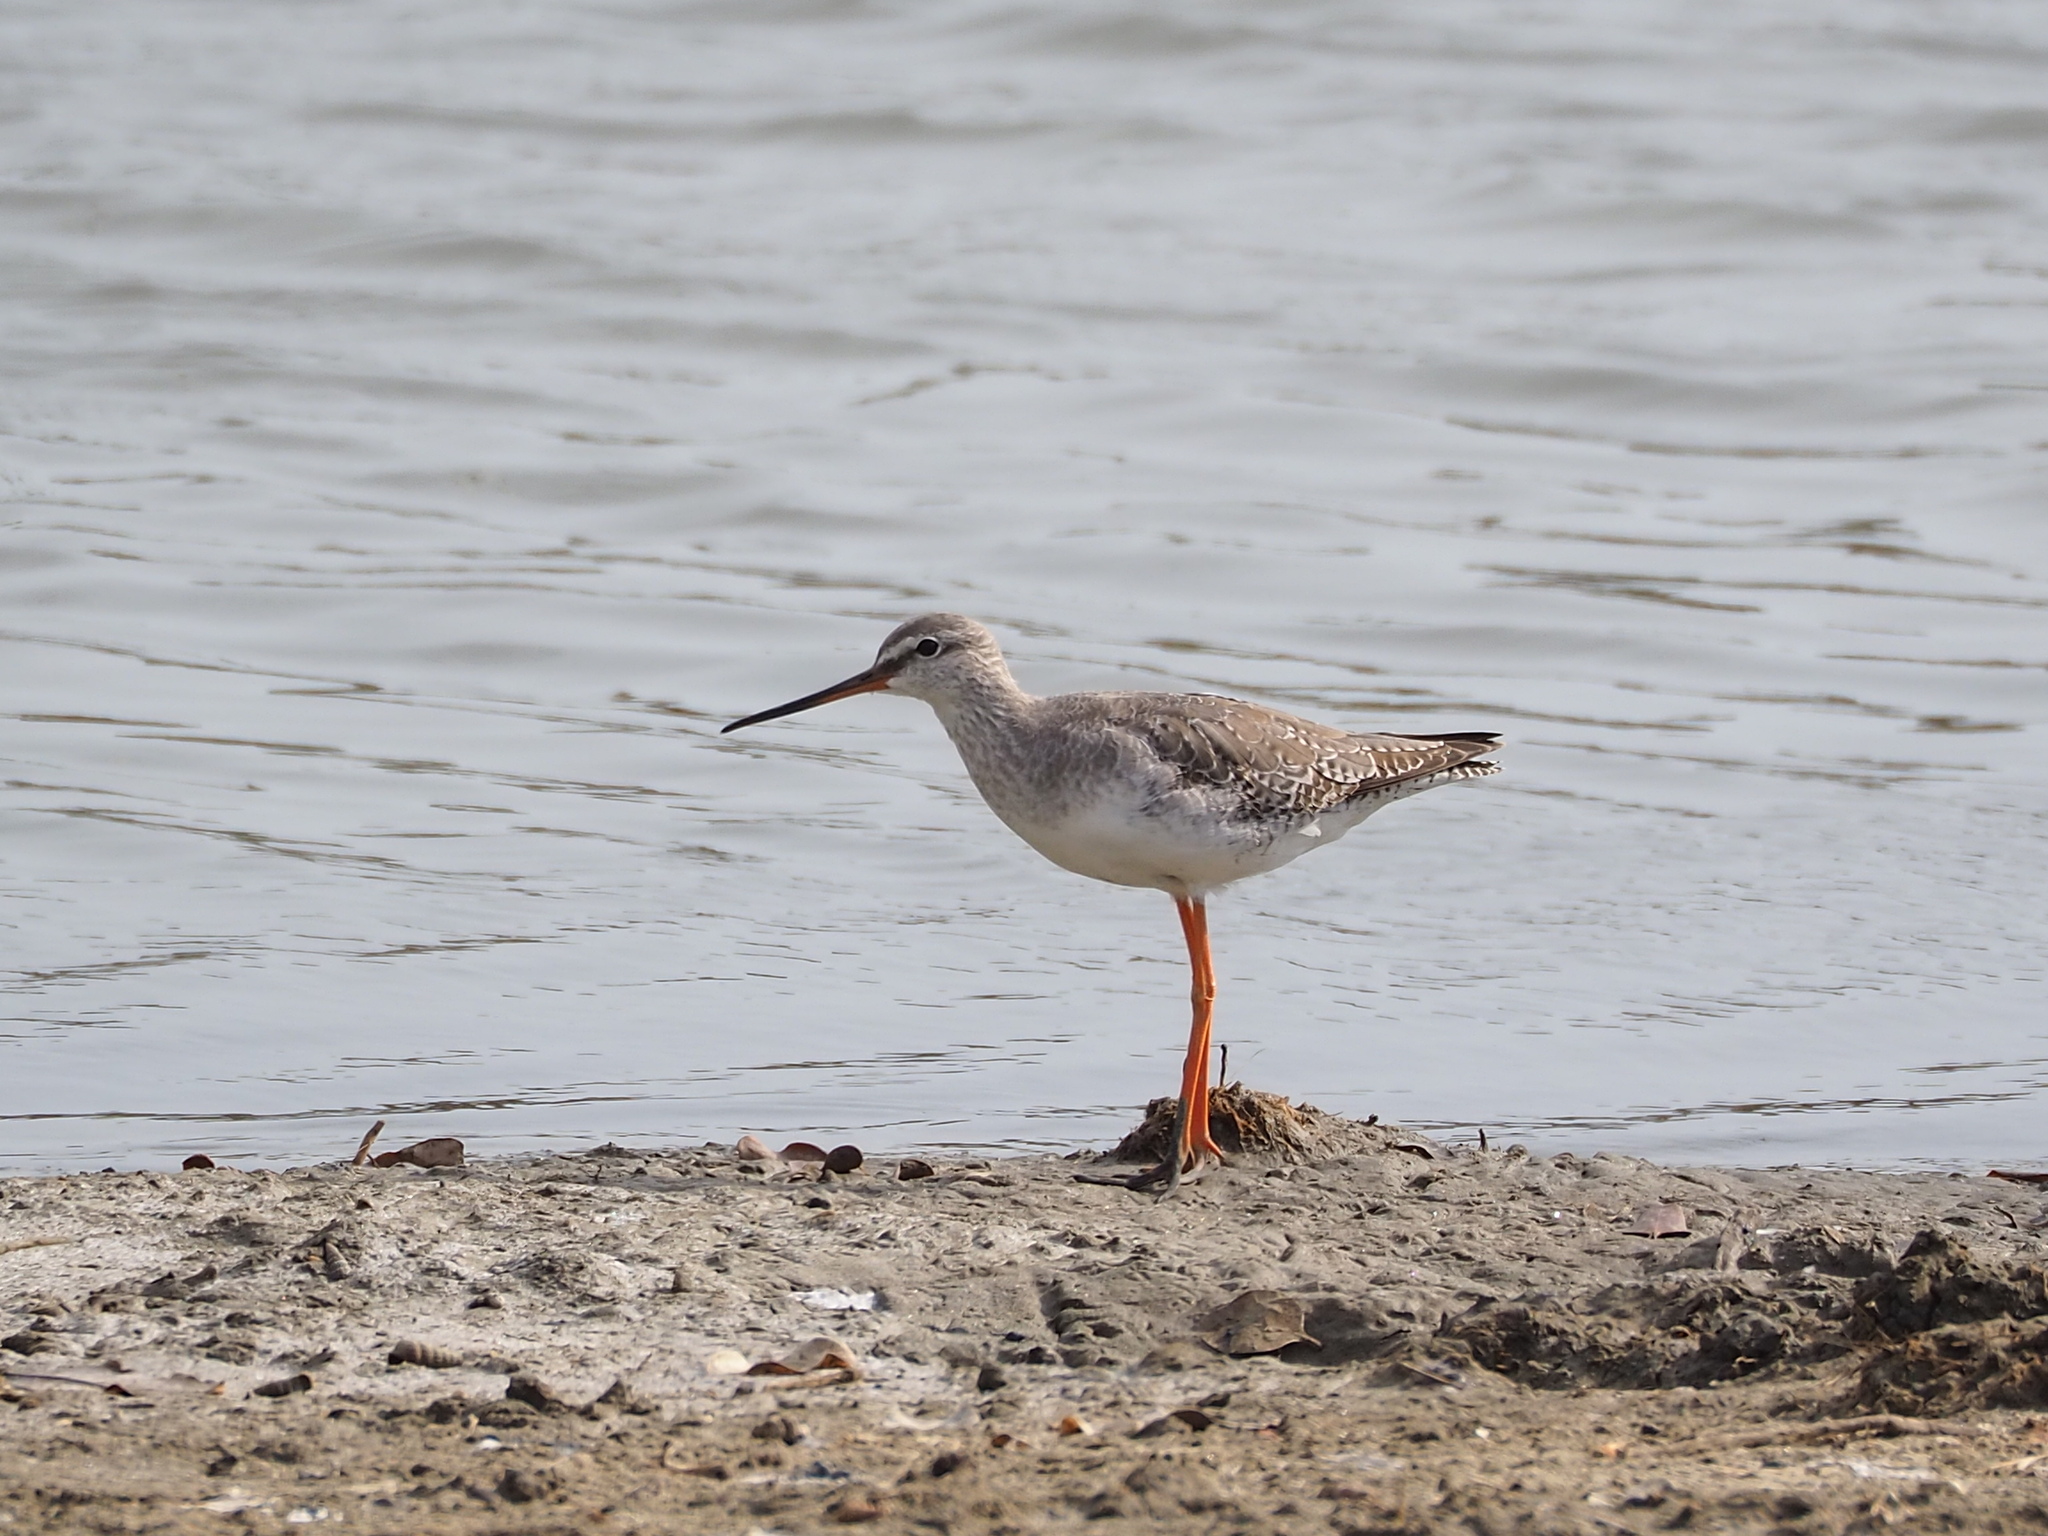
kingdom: Animalia
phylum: Chordata
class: Aves
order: Charadriiformes
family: Scolopacidae
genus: Tringa
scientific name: Tringa erythropus
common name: Spotted redshank
